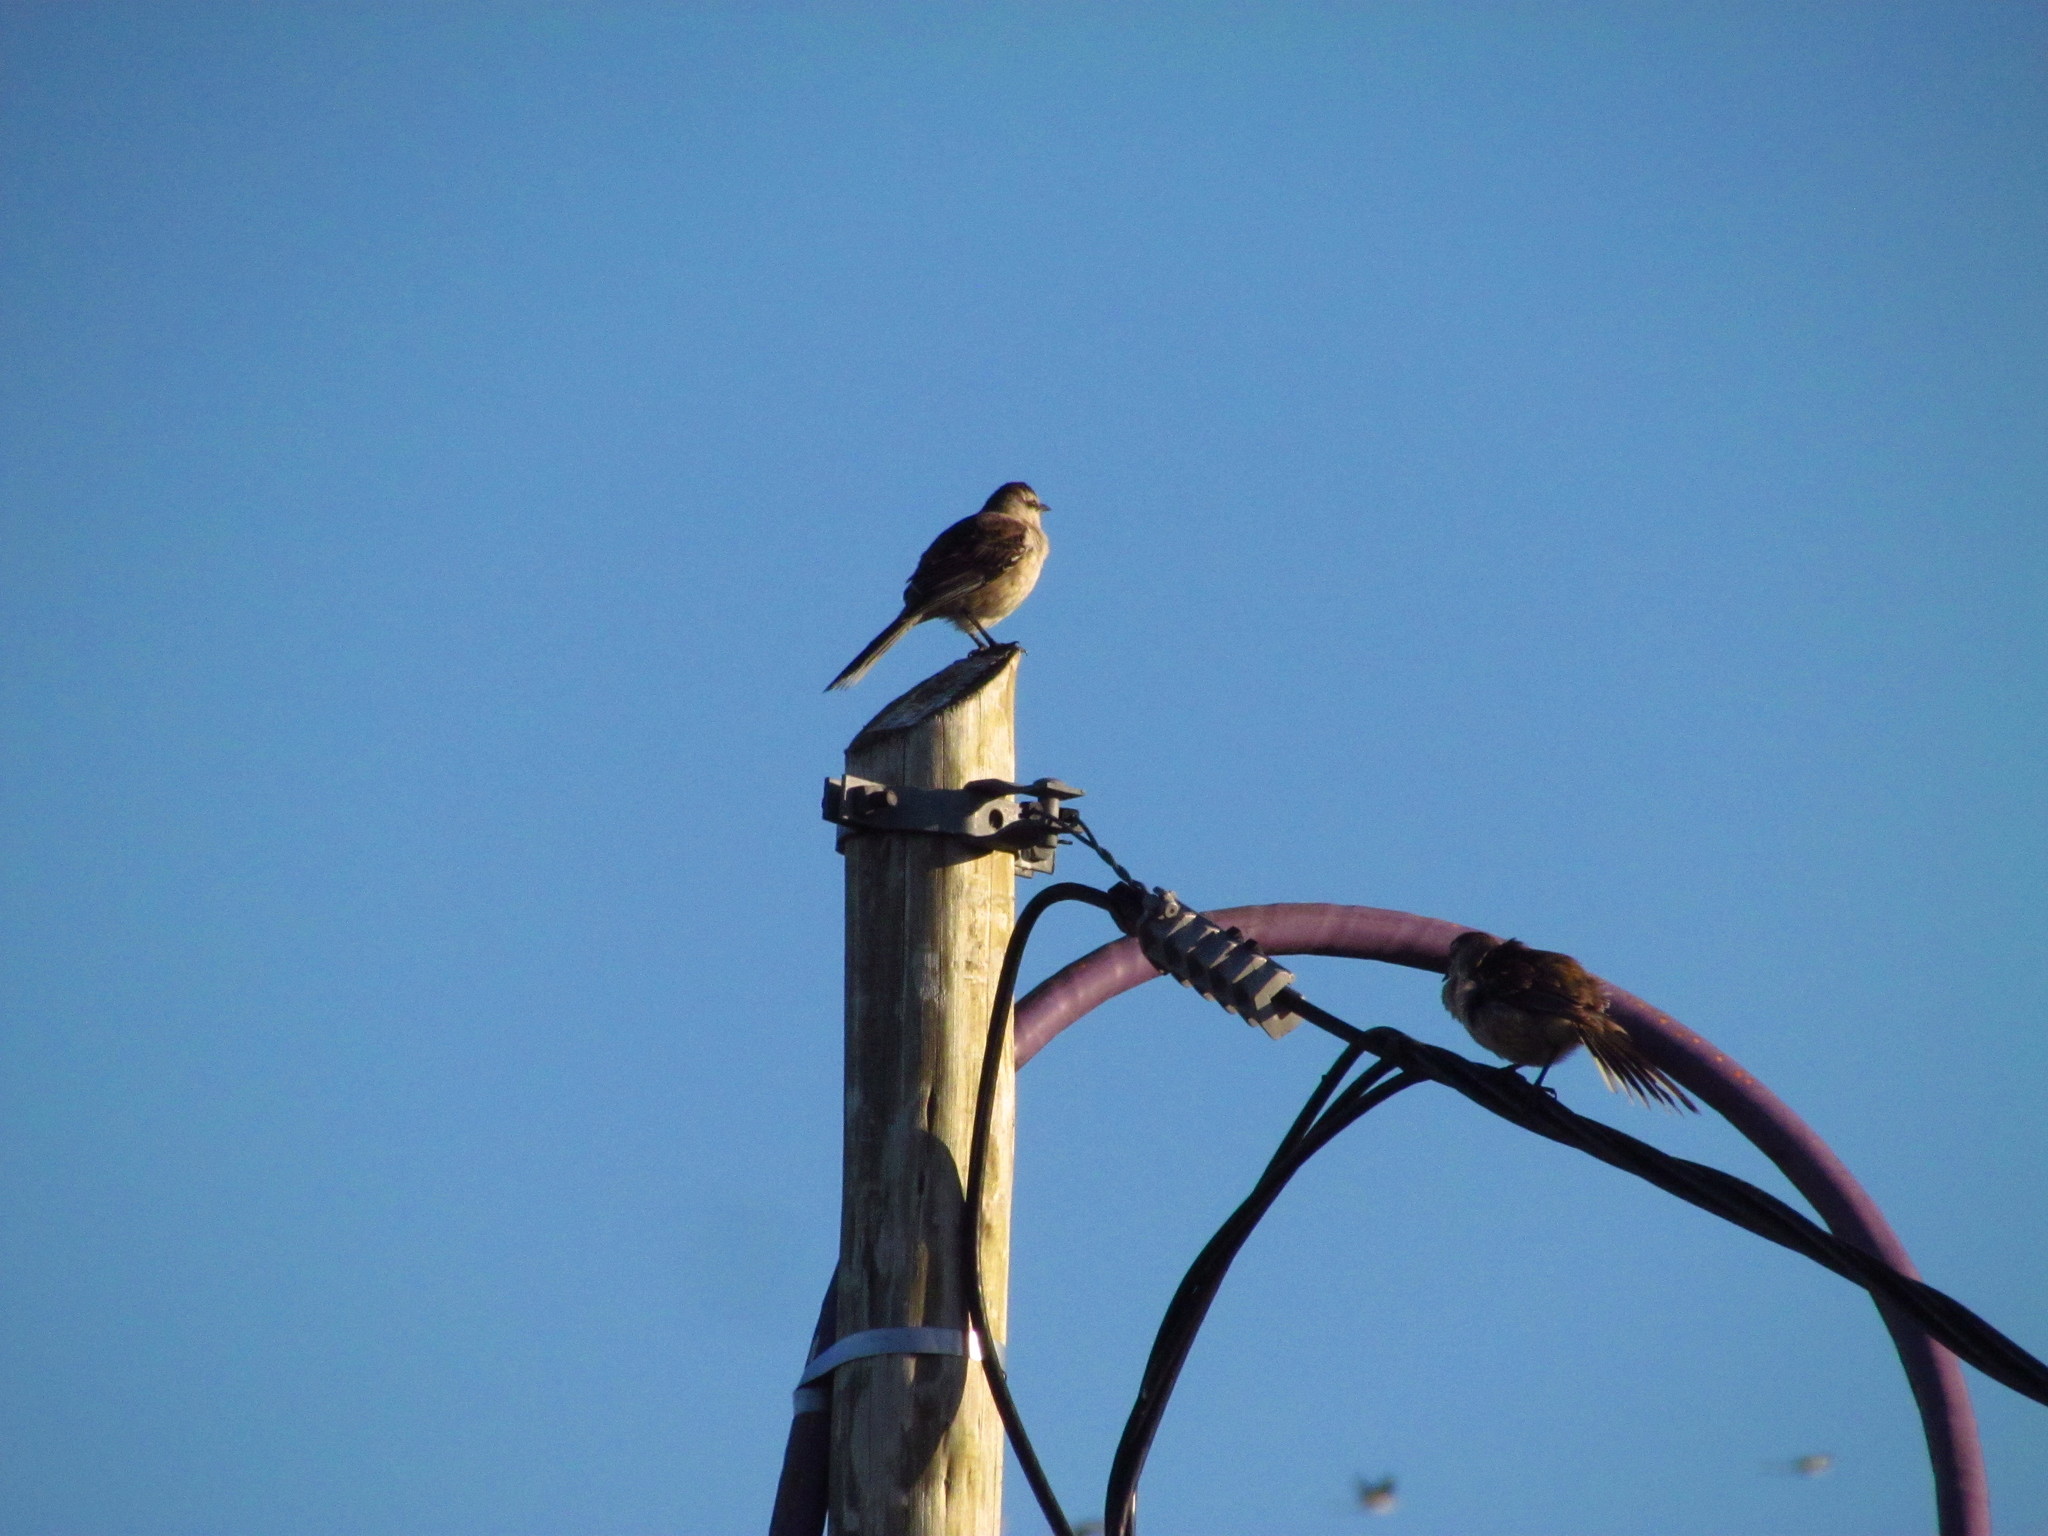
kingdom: Animalia
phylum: Chordata
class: Aves
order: Passeriformes
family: Mimidae
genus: Mimus
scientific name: Mimus saturninus
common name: Chalk-browed mockingbird
